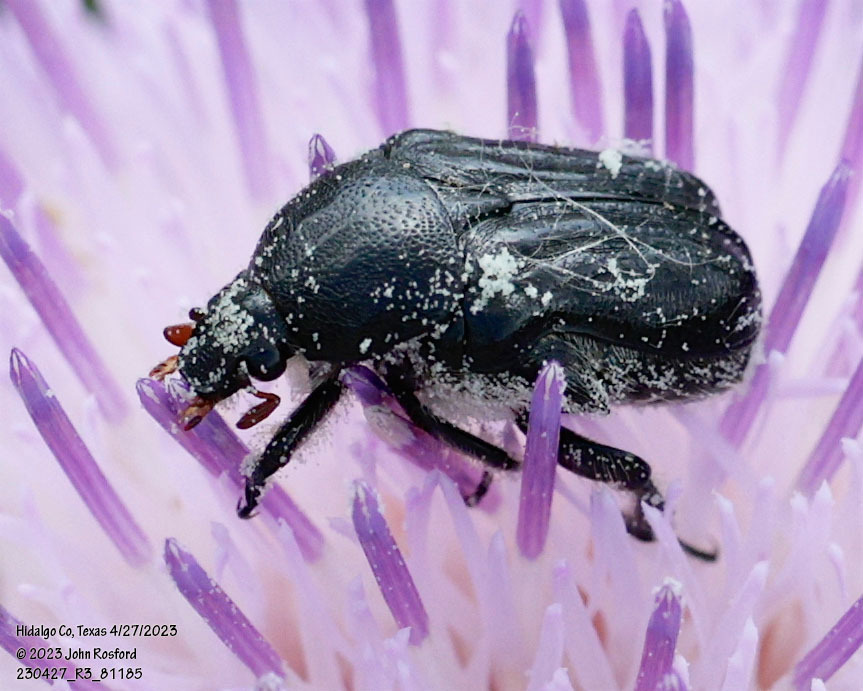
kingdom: Animalia
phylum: Arthropoda
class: Insecta
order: Coleoptera
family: Scarabaeidae
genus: Euphoria
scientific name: Euphoria kernii
